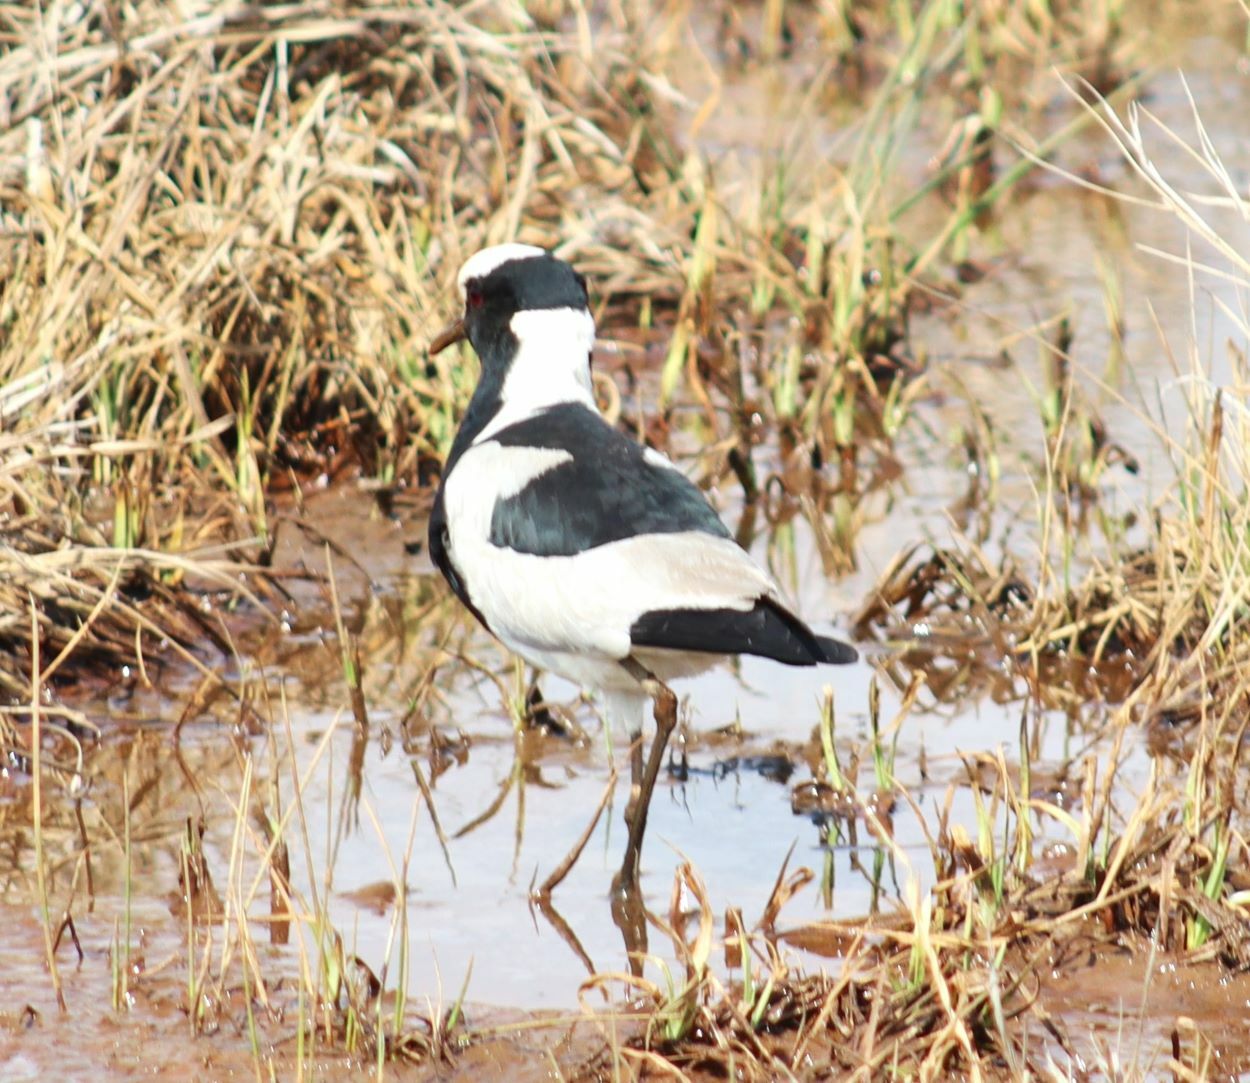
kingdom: Animalia
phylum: Chordata
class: Aves
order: Charadriiformes
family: Charadriidae
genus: Vanellus
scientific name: Vanellus armatus
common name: Blacksmith lapwing
